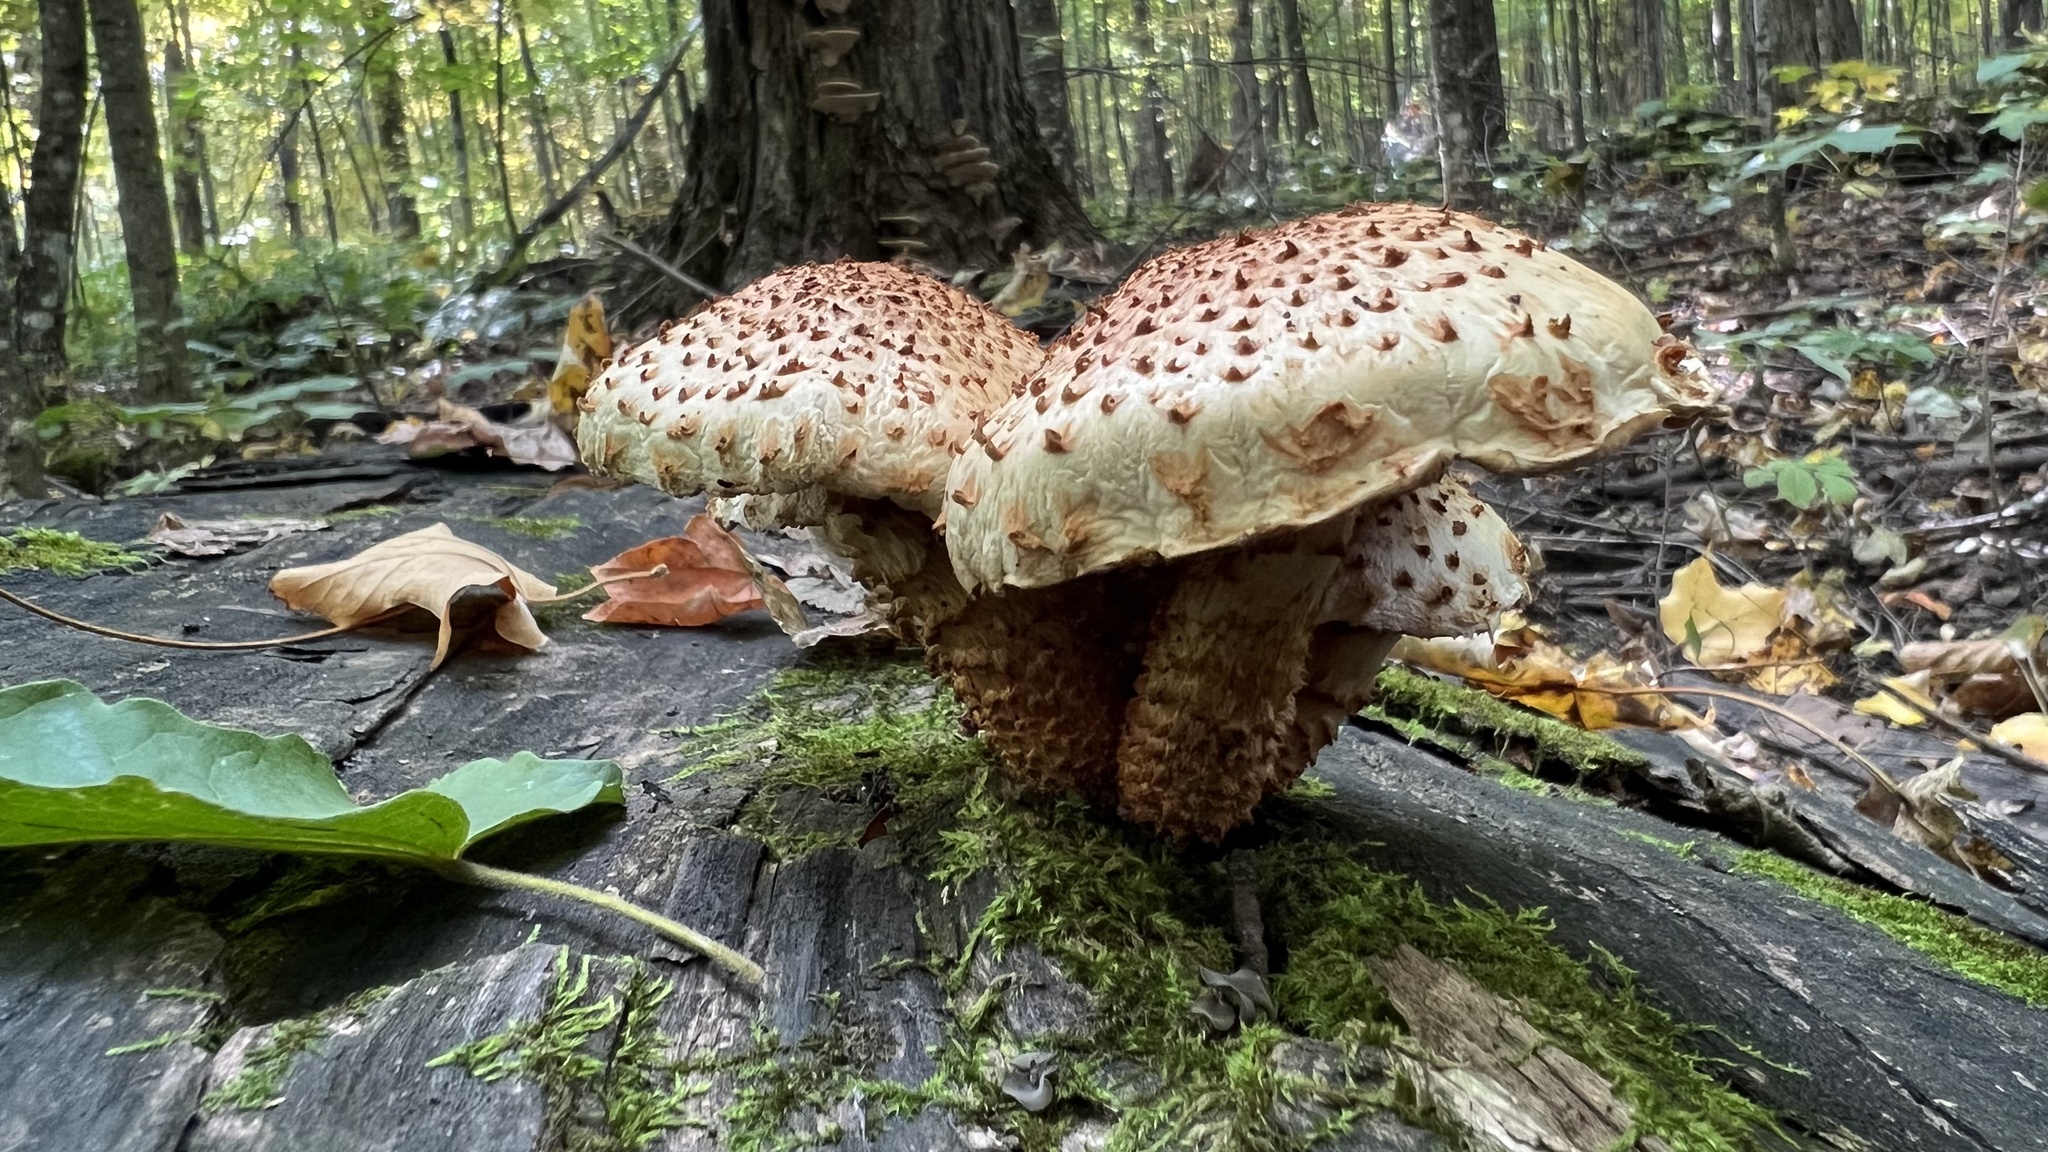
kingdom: Fungi
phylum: Basidiomycota
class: Agaricomycetes
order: Agaricales
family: Strophariaceae
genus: Pholiota
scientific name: Pholiota squarrosoides
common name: Sharp-scaly pholiota
